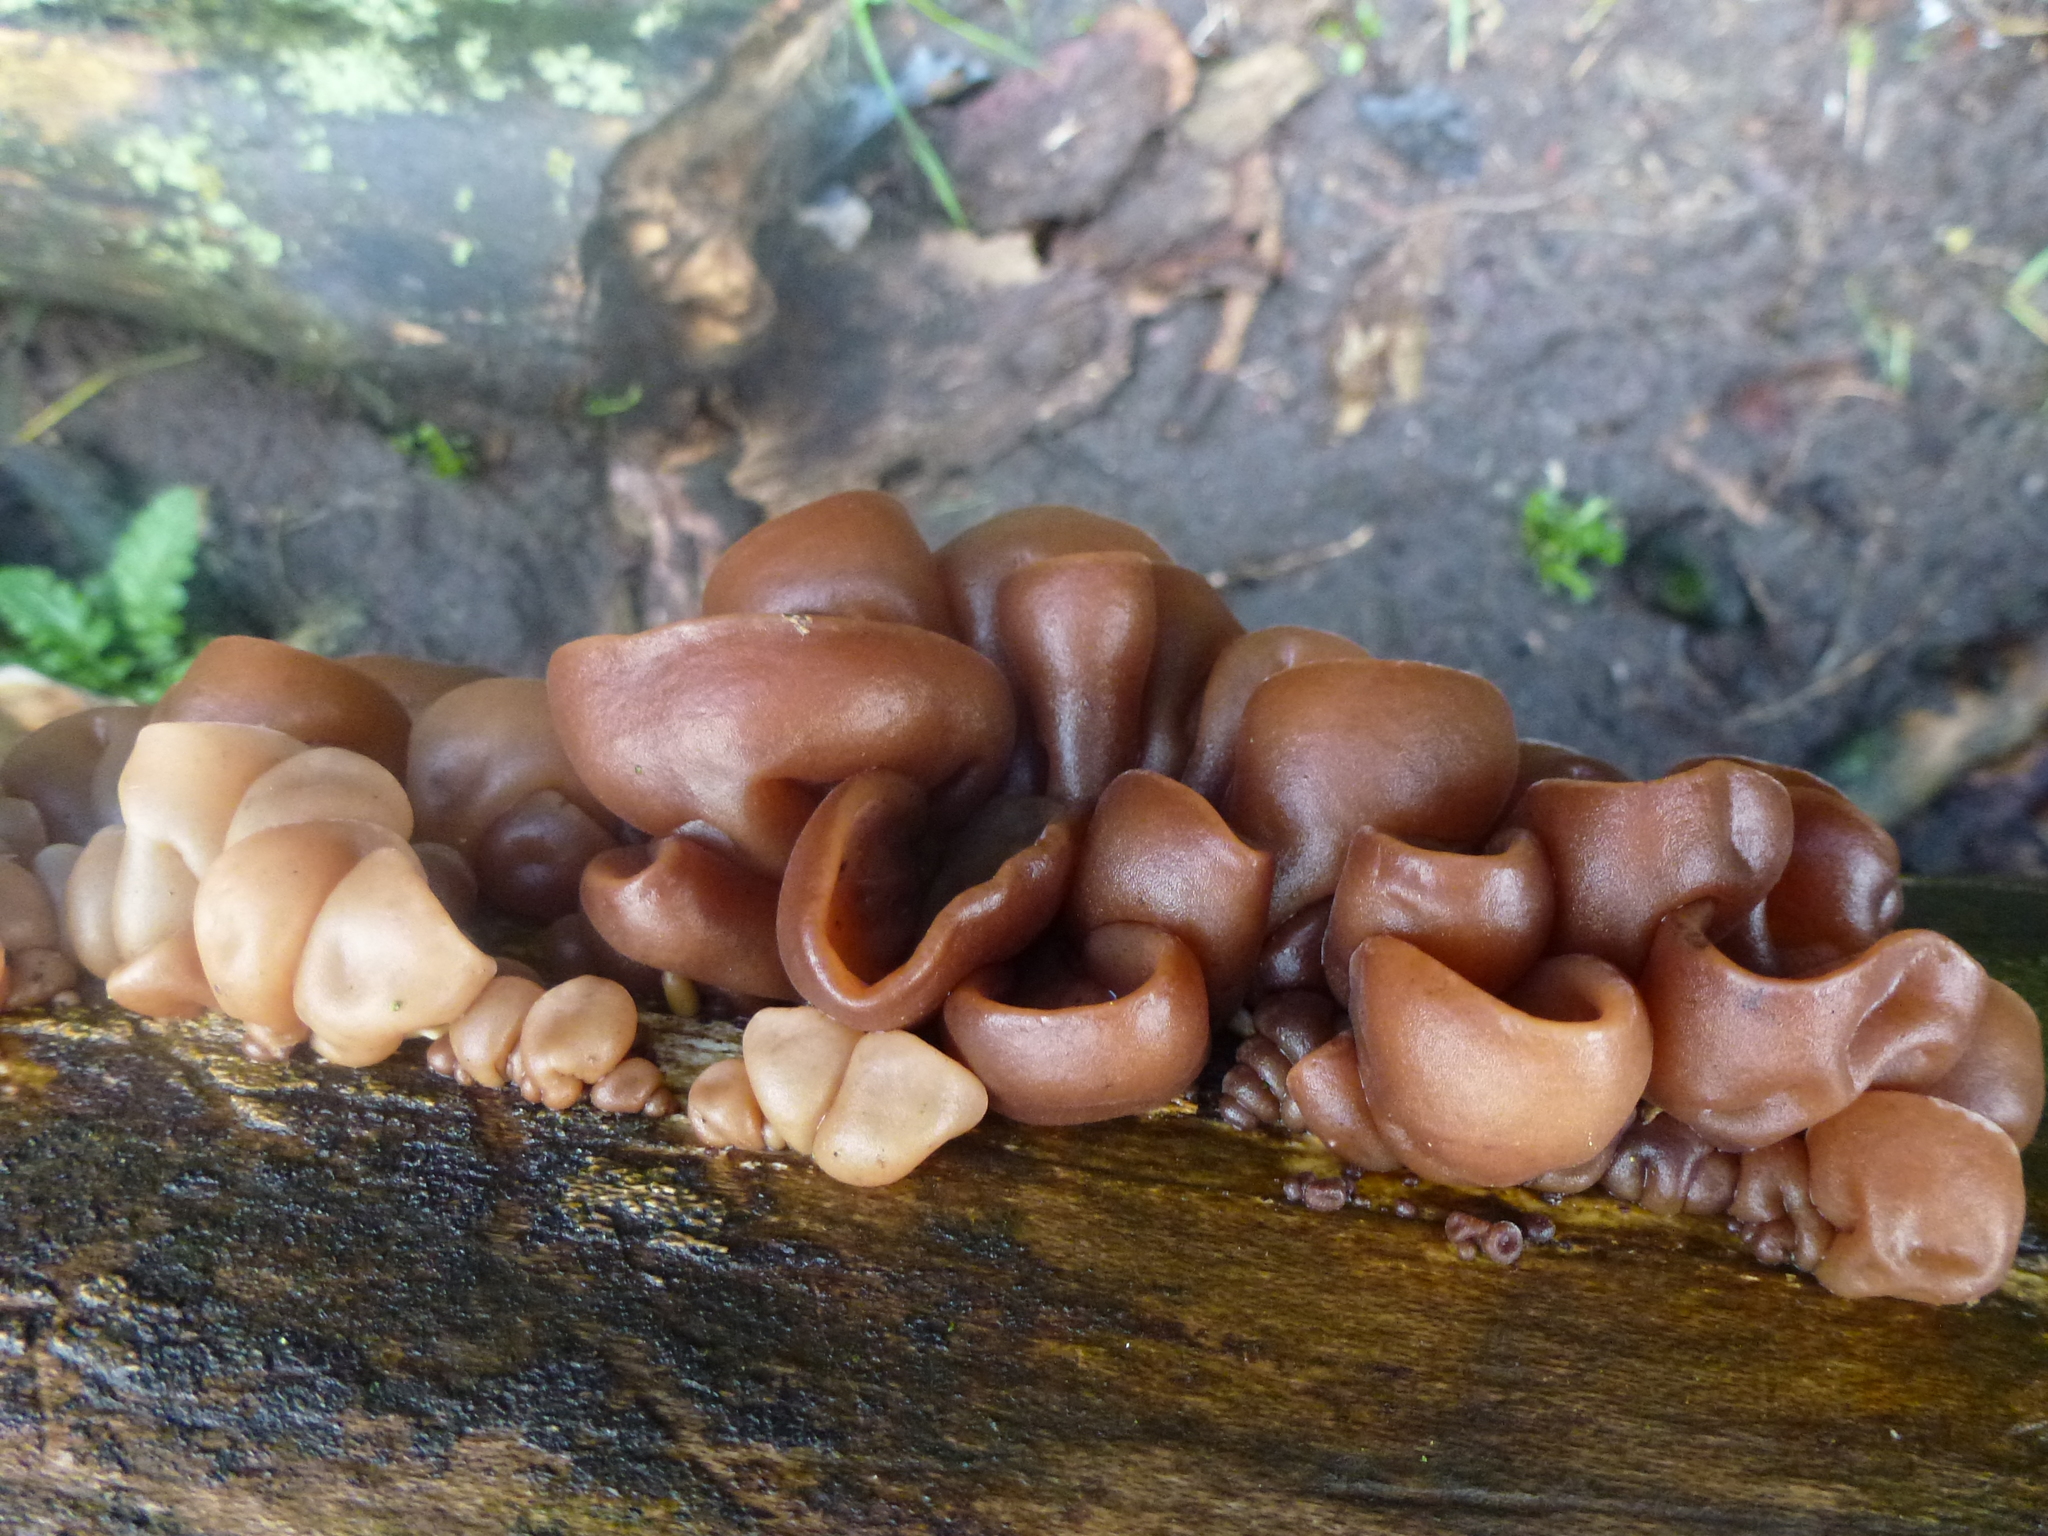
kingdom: Fungi
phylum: Basidiomycota
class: Agaricomycetes
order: Auriculariales
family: Auriculariaceae
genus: Auricularia
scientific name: Auricularia auricula-judae
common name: Jelly ear
